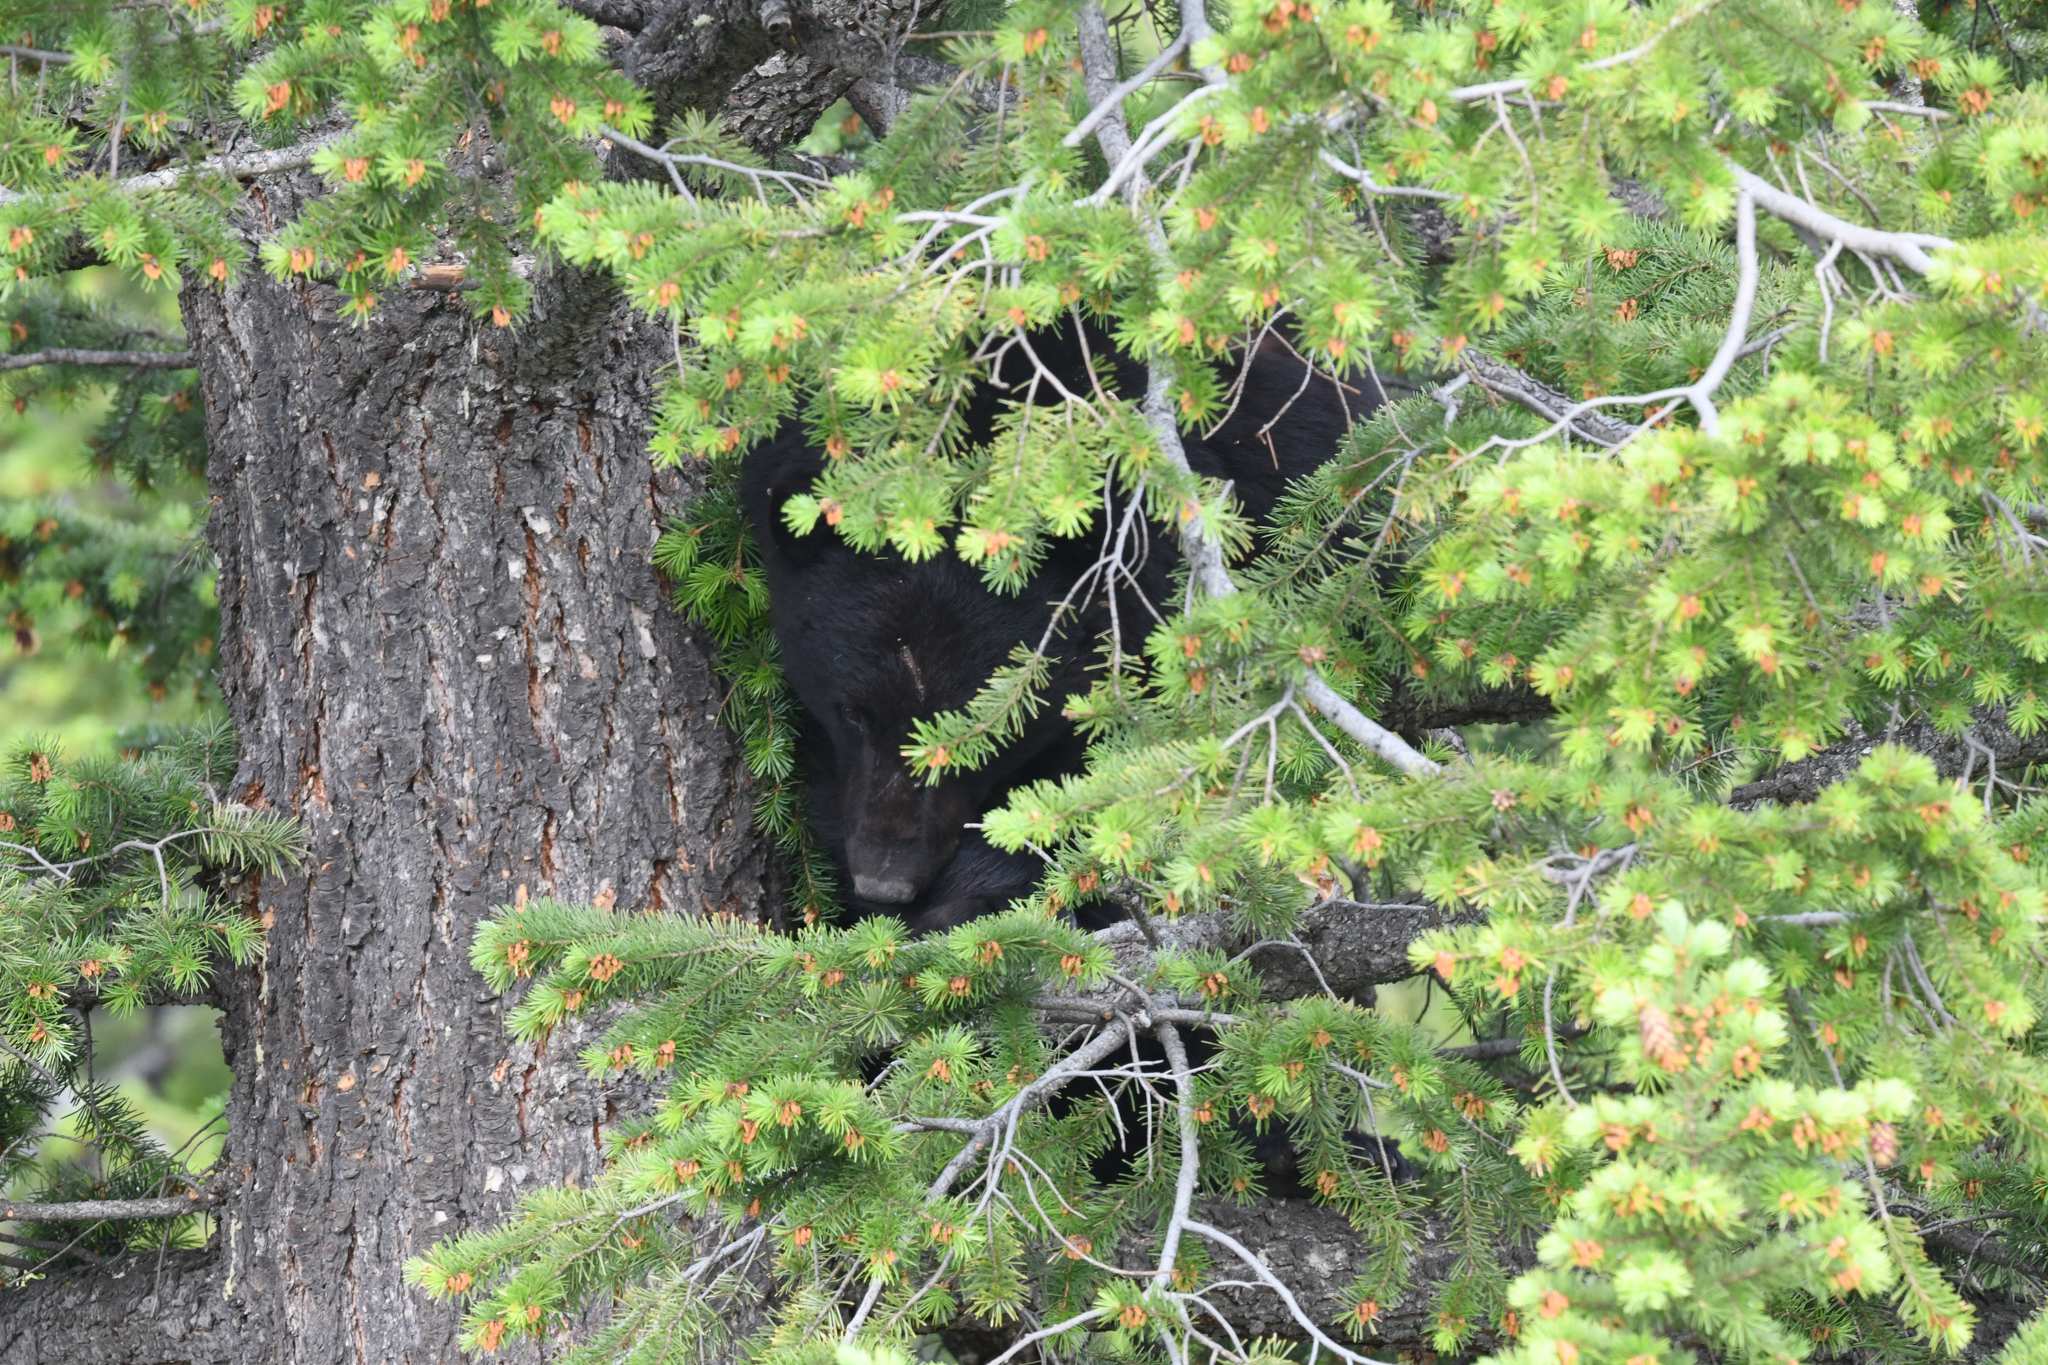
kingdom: Animalia
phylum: Chordata
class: Mammalia
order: Carnivora
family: Ursidae
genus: Ursus
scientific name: Ursus americanus
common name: American black bear
